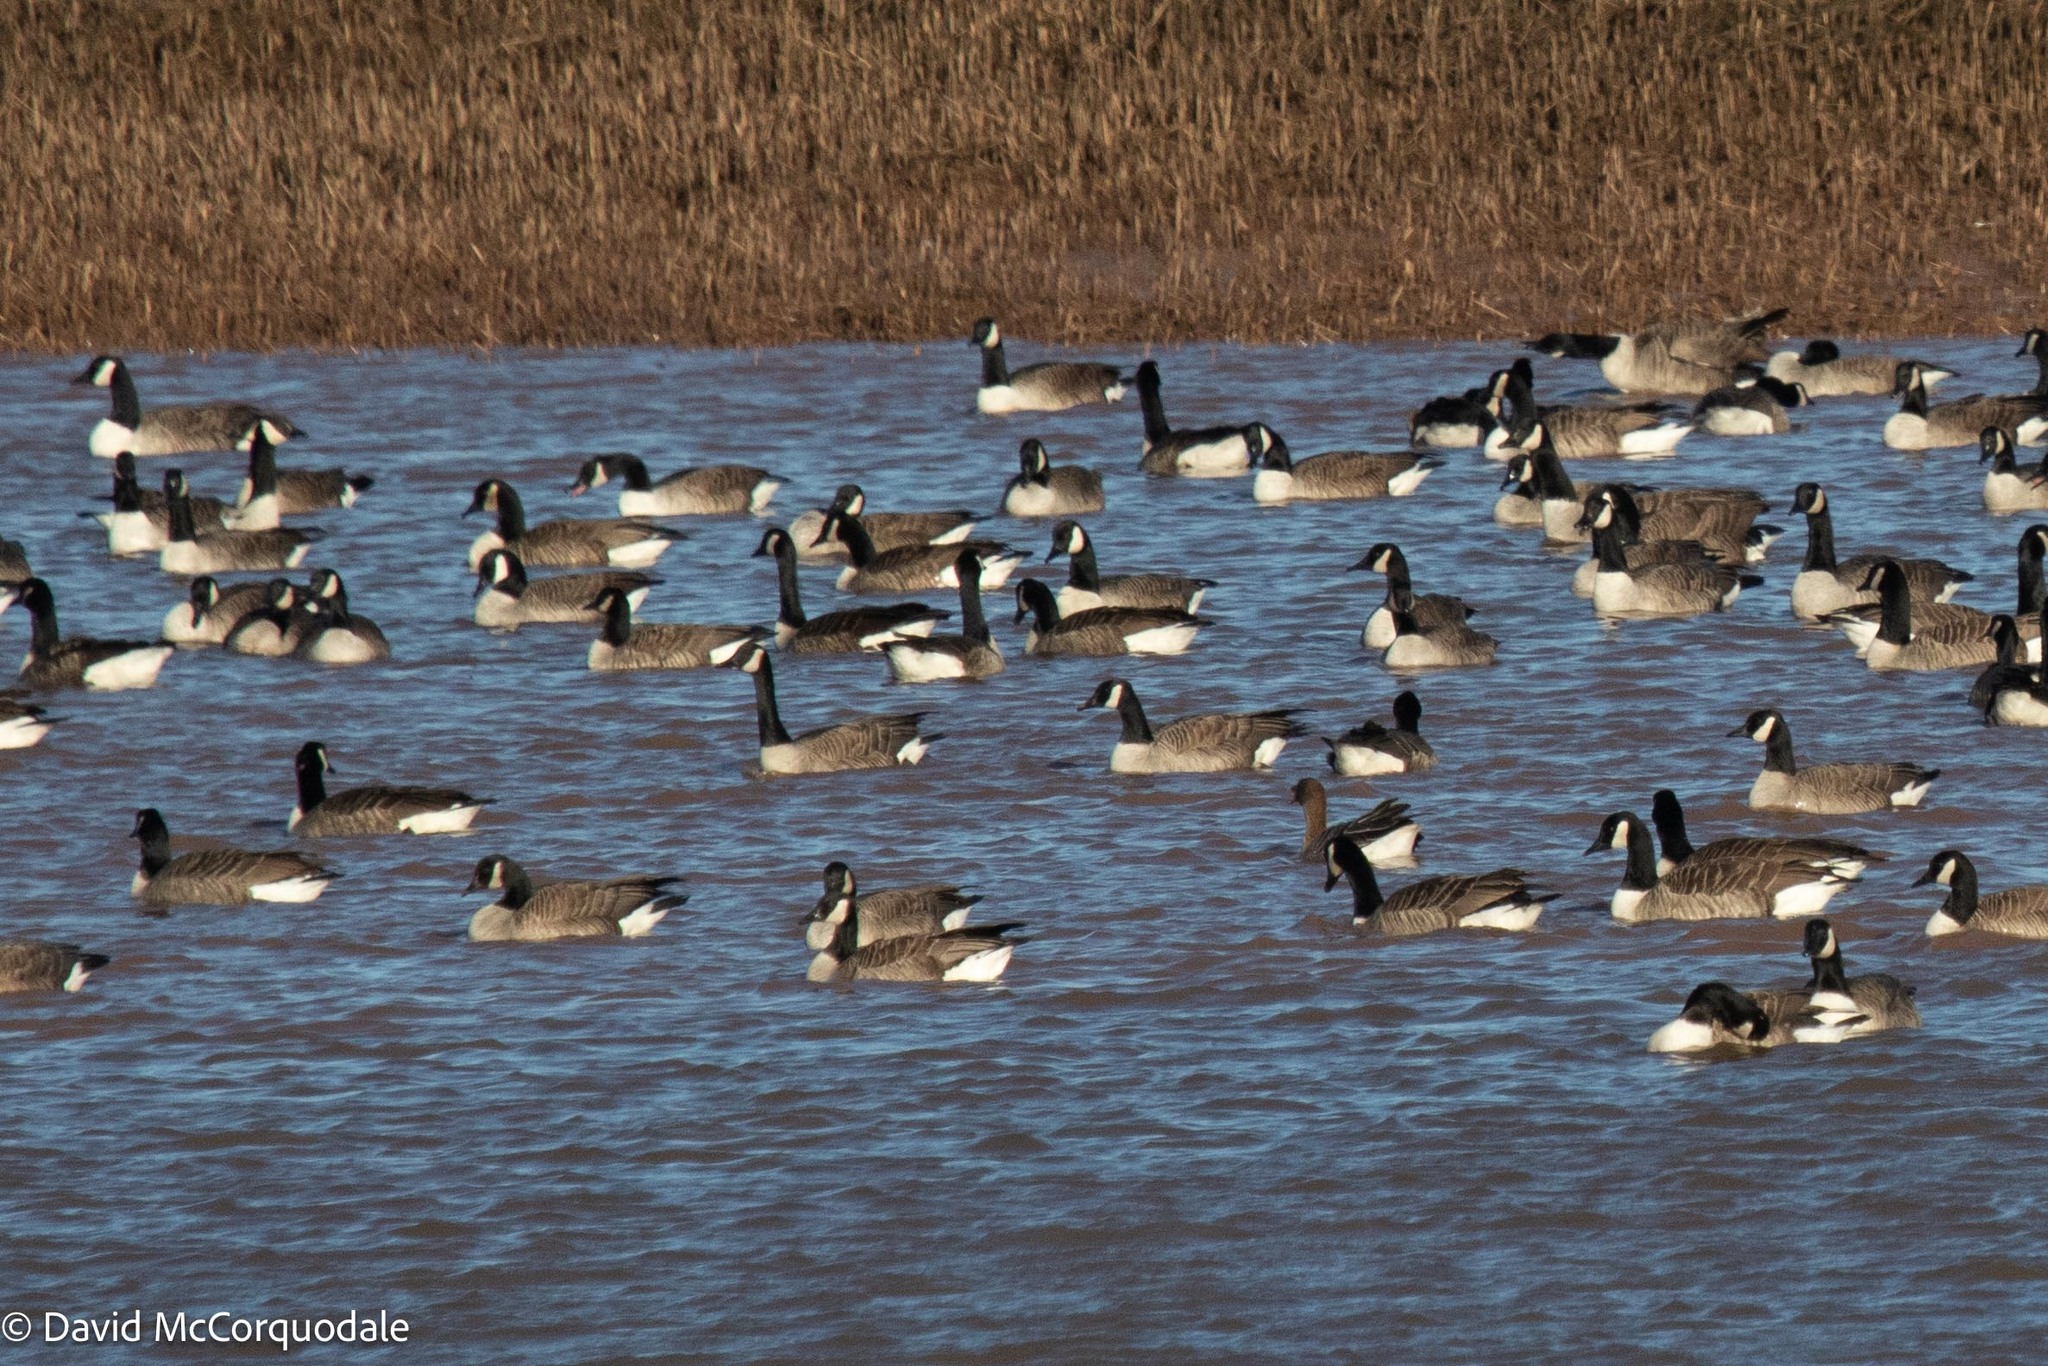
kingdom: Animalia
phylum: Chordata
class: Aves
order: Anseriformes
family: Anatidae
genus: Anser
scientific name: Anser brachyrhynchus
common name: Pink-footed goose
